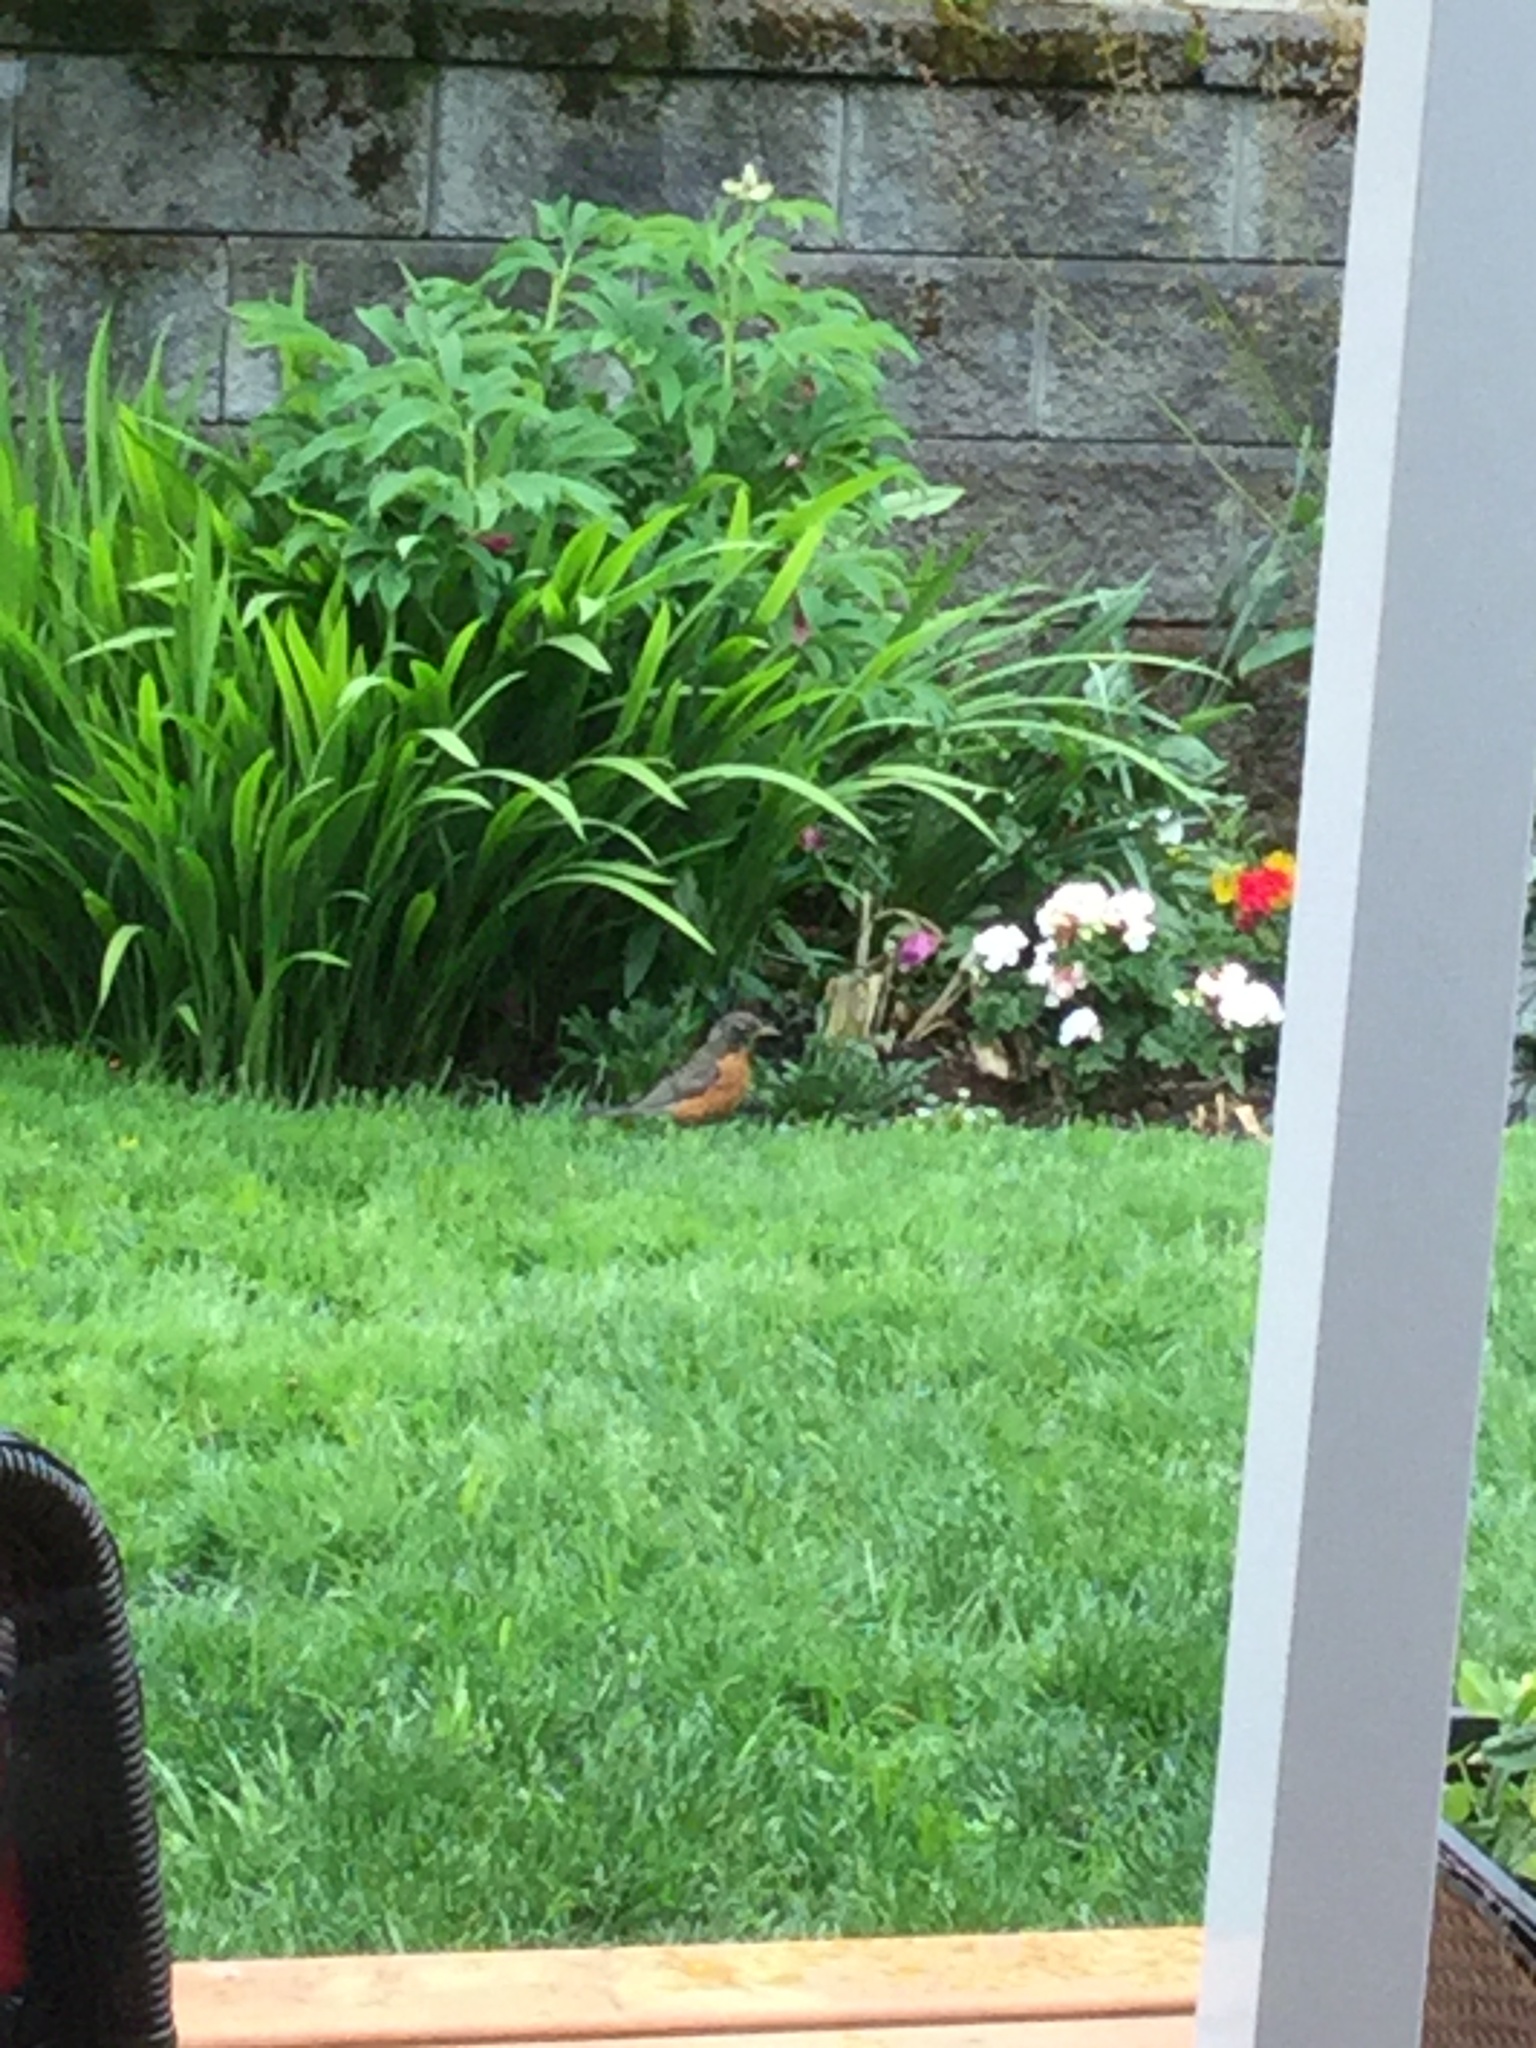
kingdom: Animalia
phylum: Chordata
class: Aves
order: Passeriformes
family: Turdidae
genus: Turdus
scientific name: Turdus migratorius
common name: American robin
